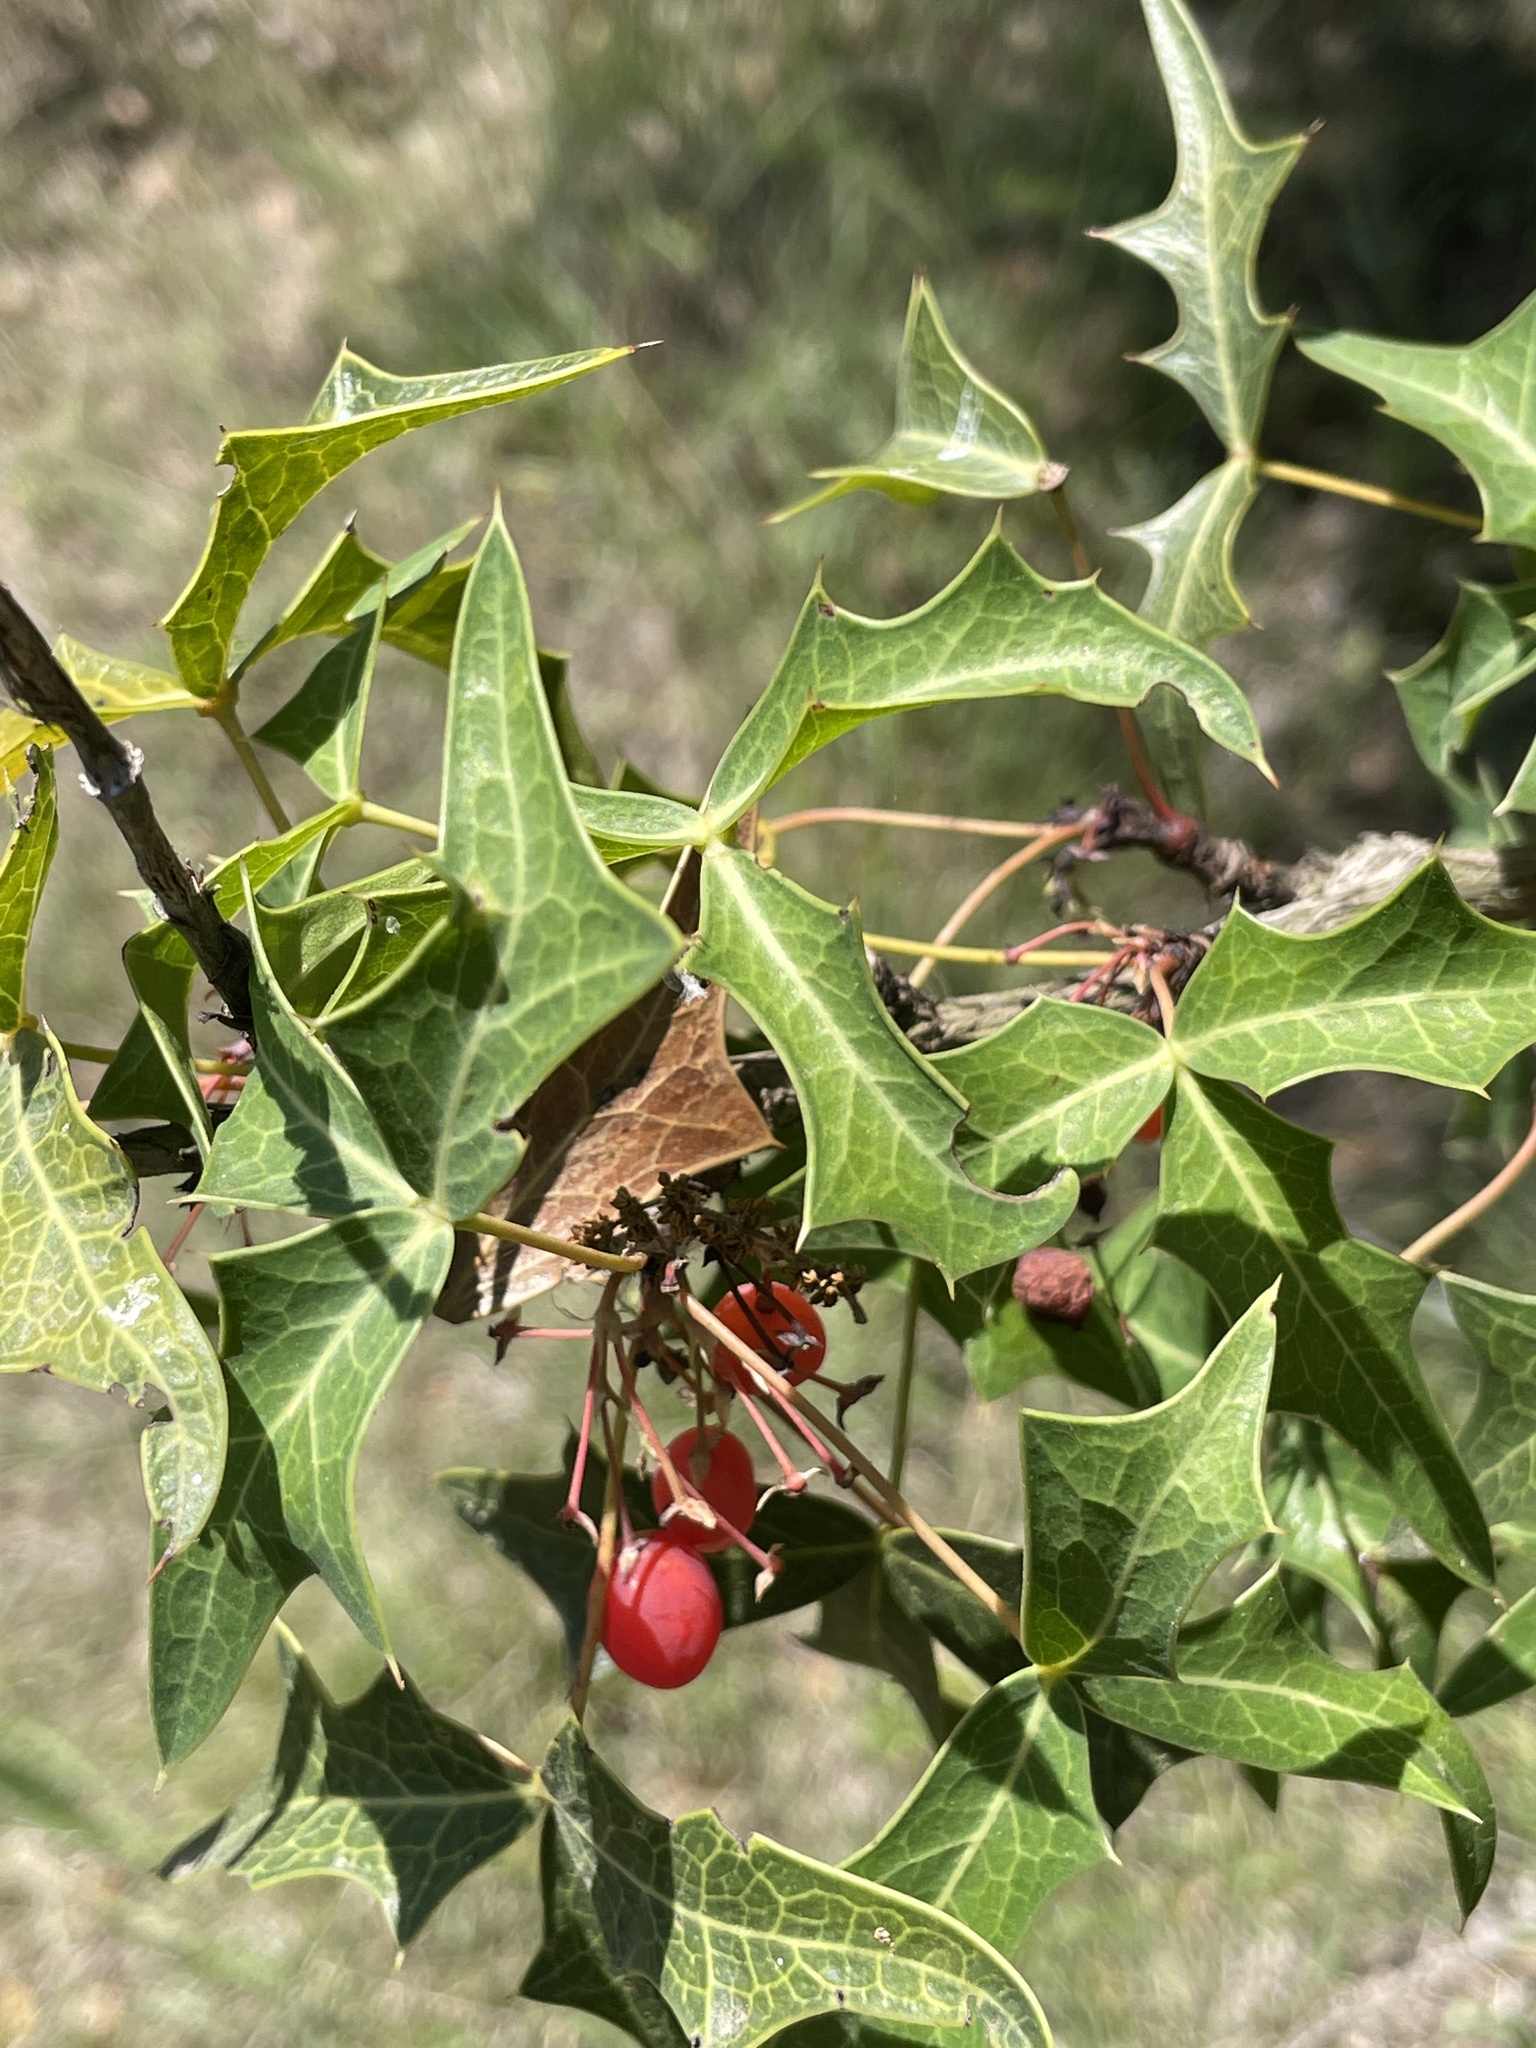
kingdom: Plantae
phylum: Tracheophyta
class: Magnoliopsida
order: Ranunculales
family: Berberidaceae
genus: Alloberberis
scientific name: Alloberberis trifoliolata
